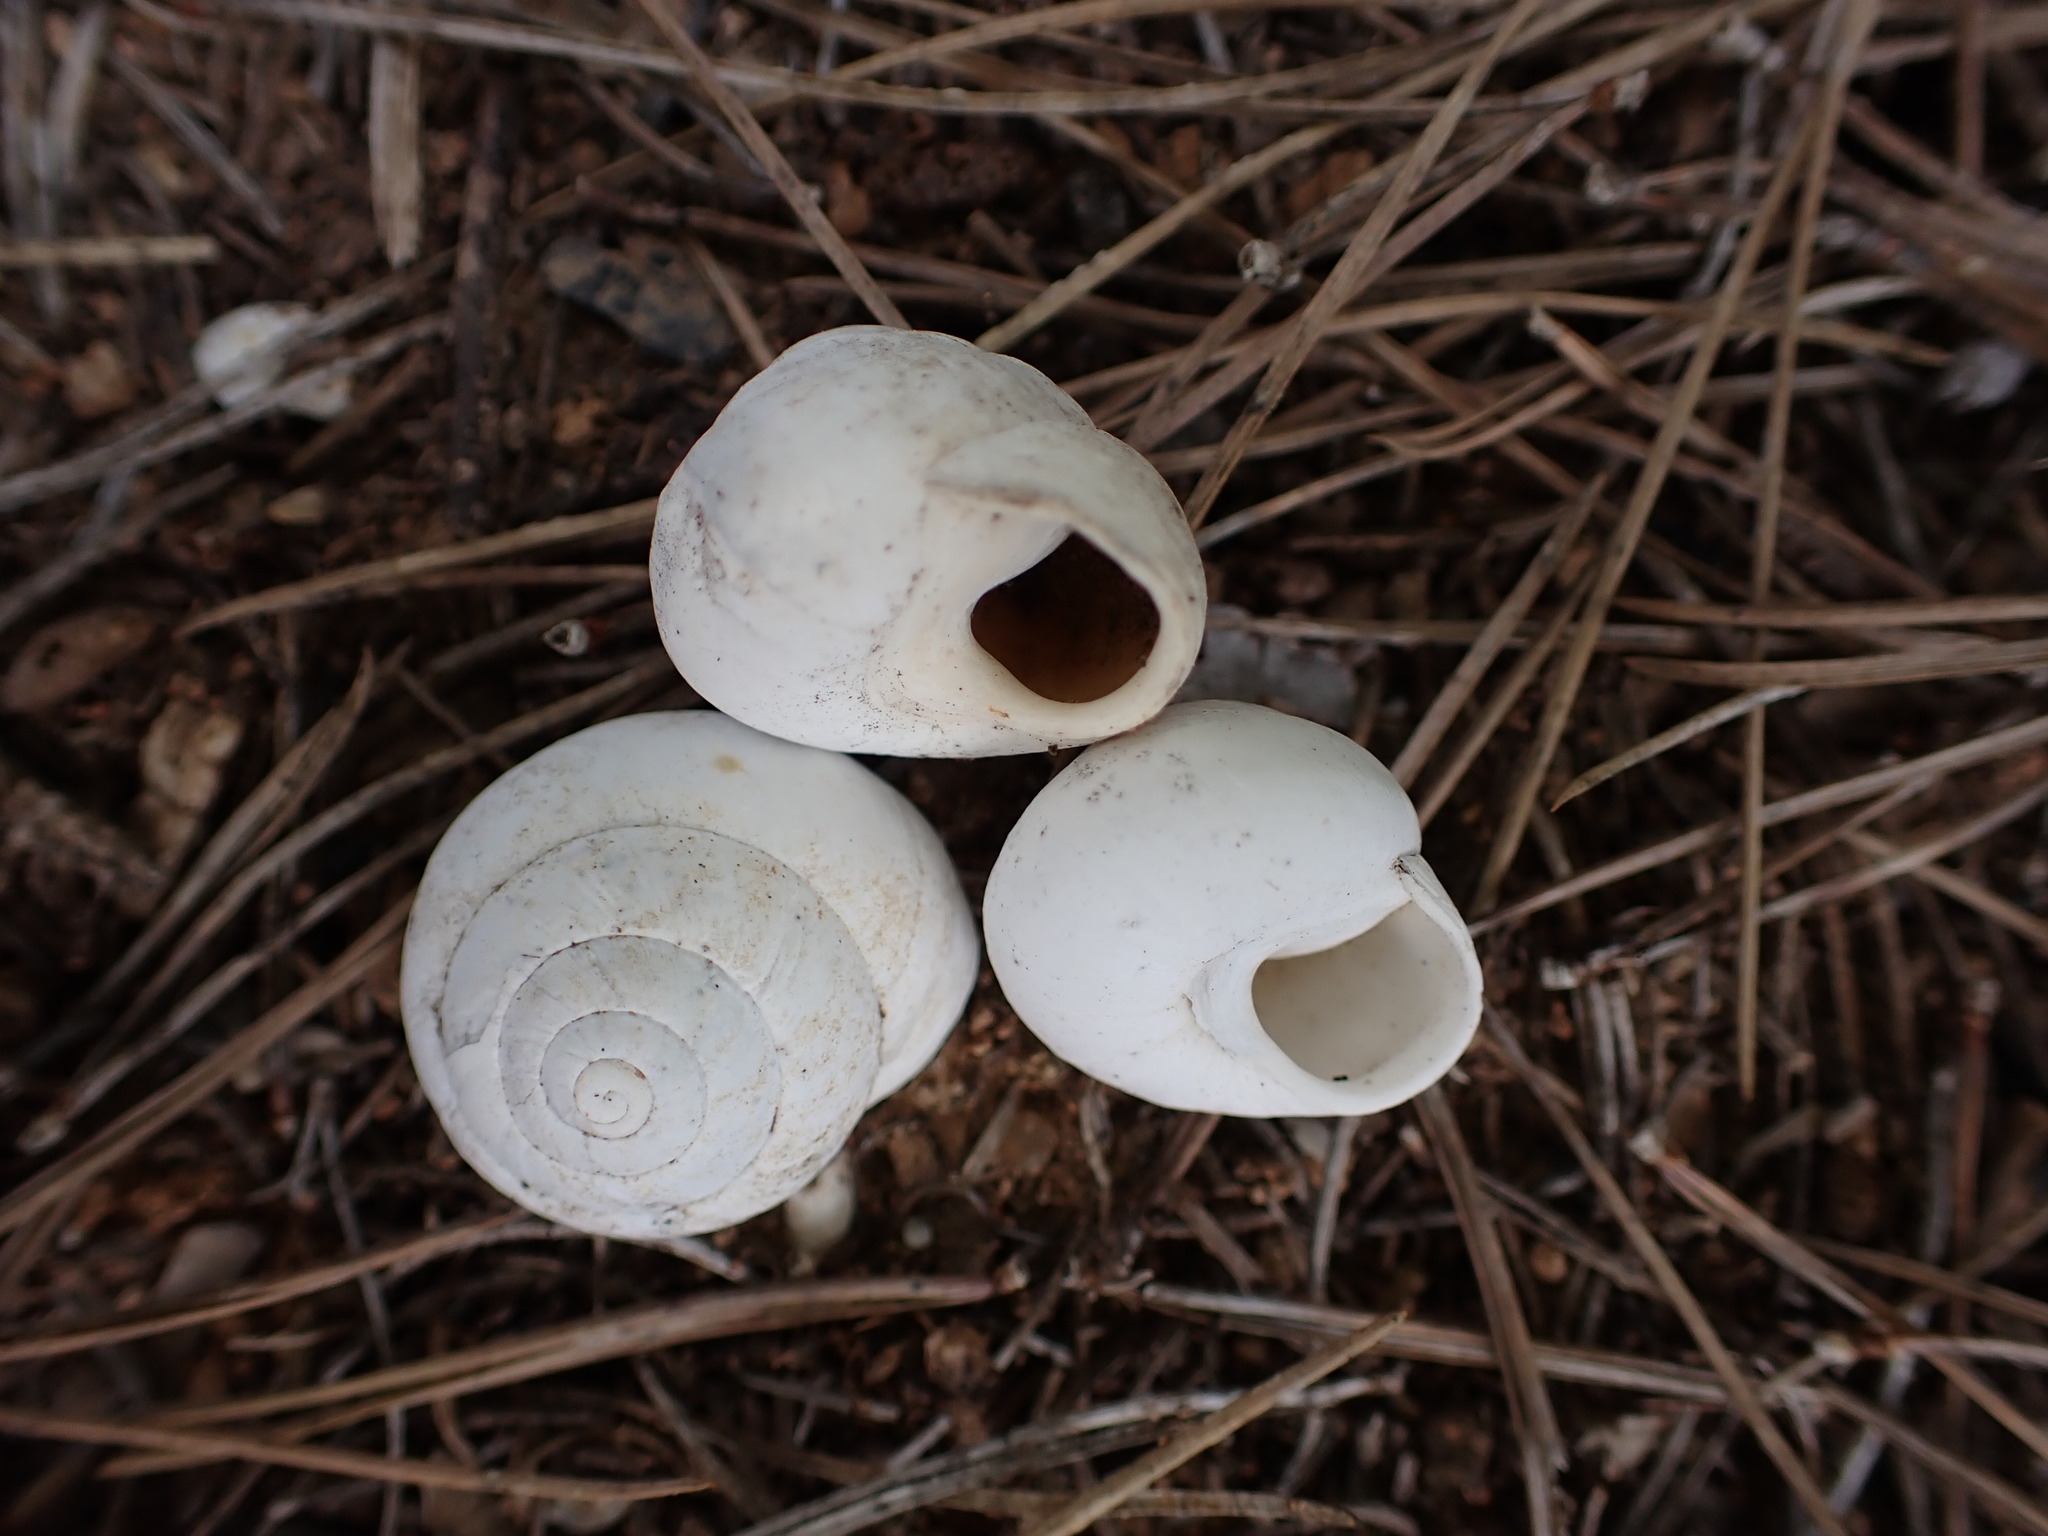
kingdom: Animalia
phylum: Mollusca
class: Gastropoda
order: Stylommatophora
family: Sphincterochilidae
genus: Sphincterochila
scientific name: Sphincterochila candidissima
